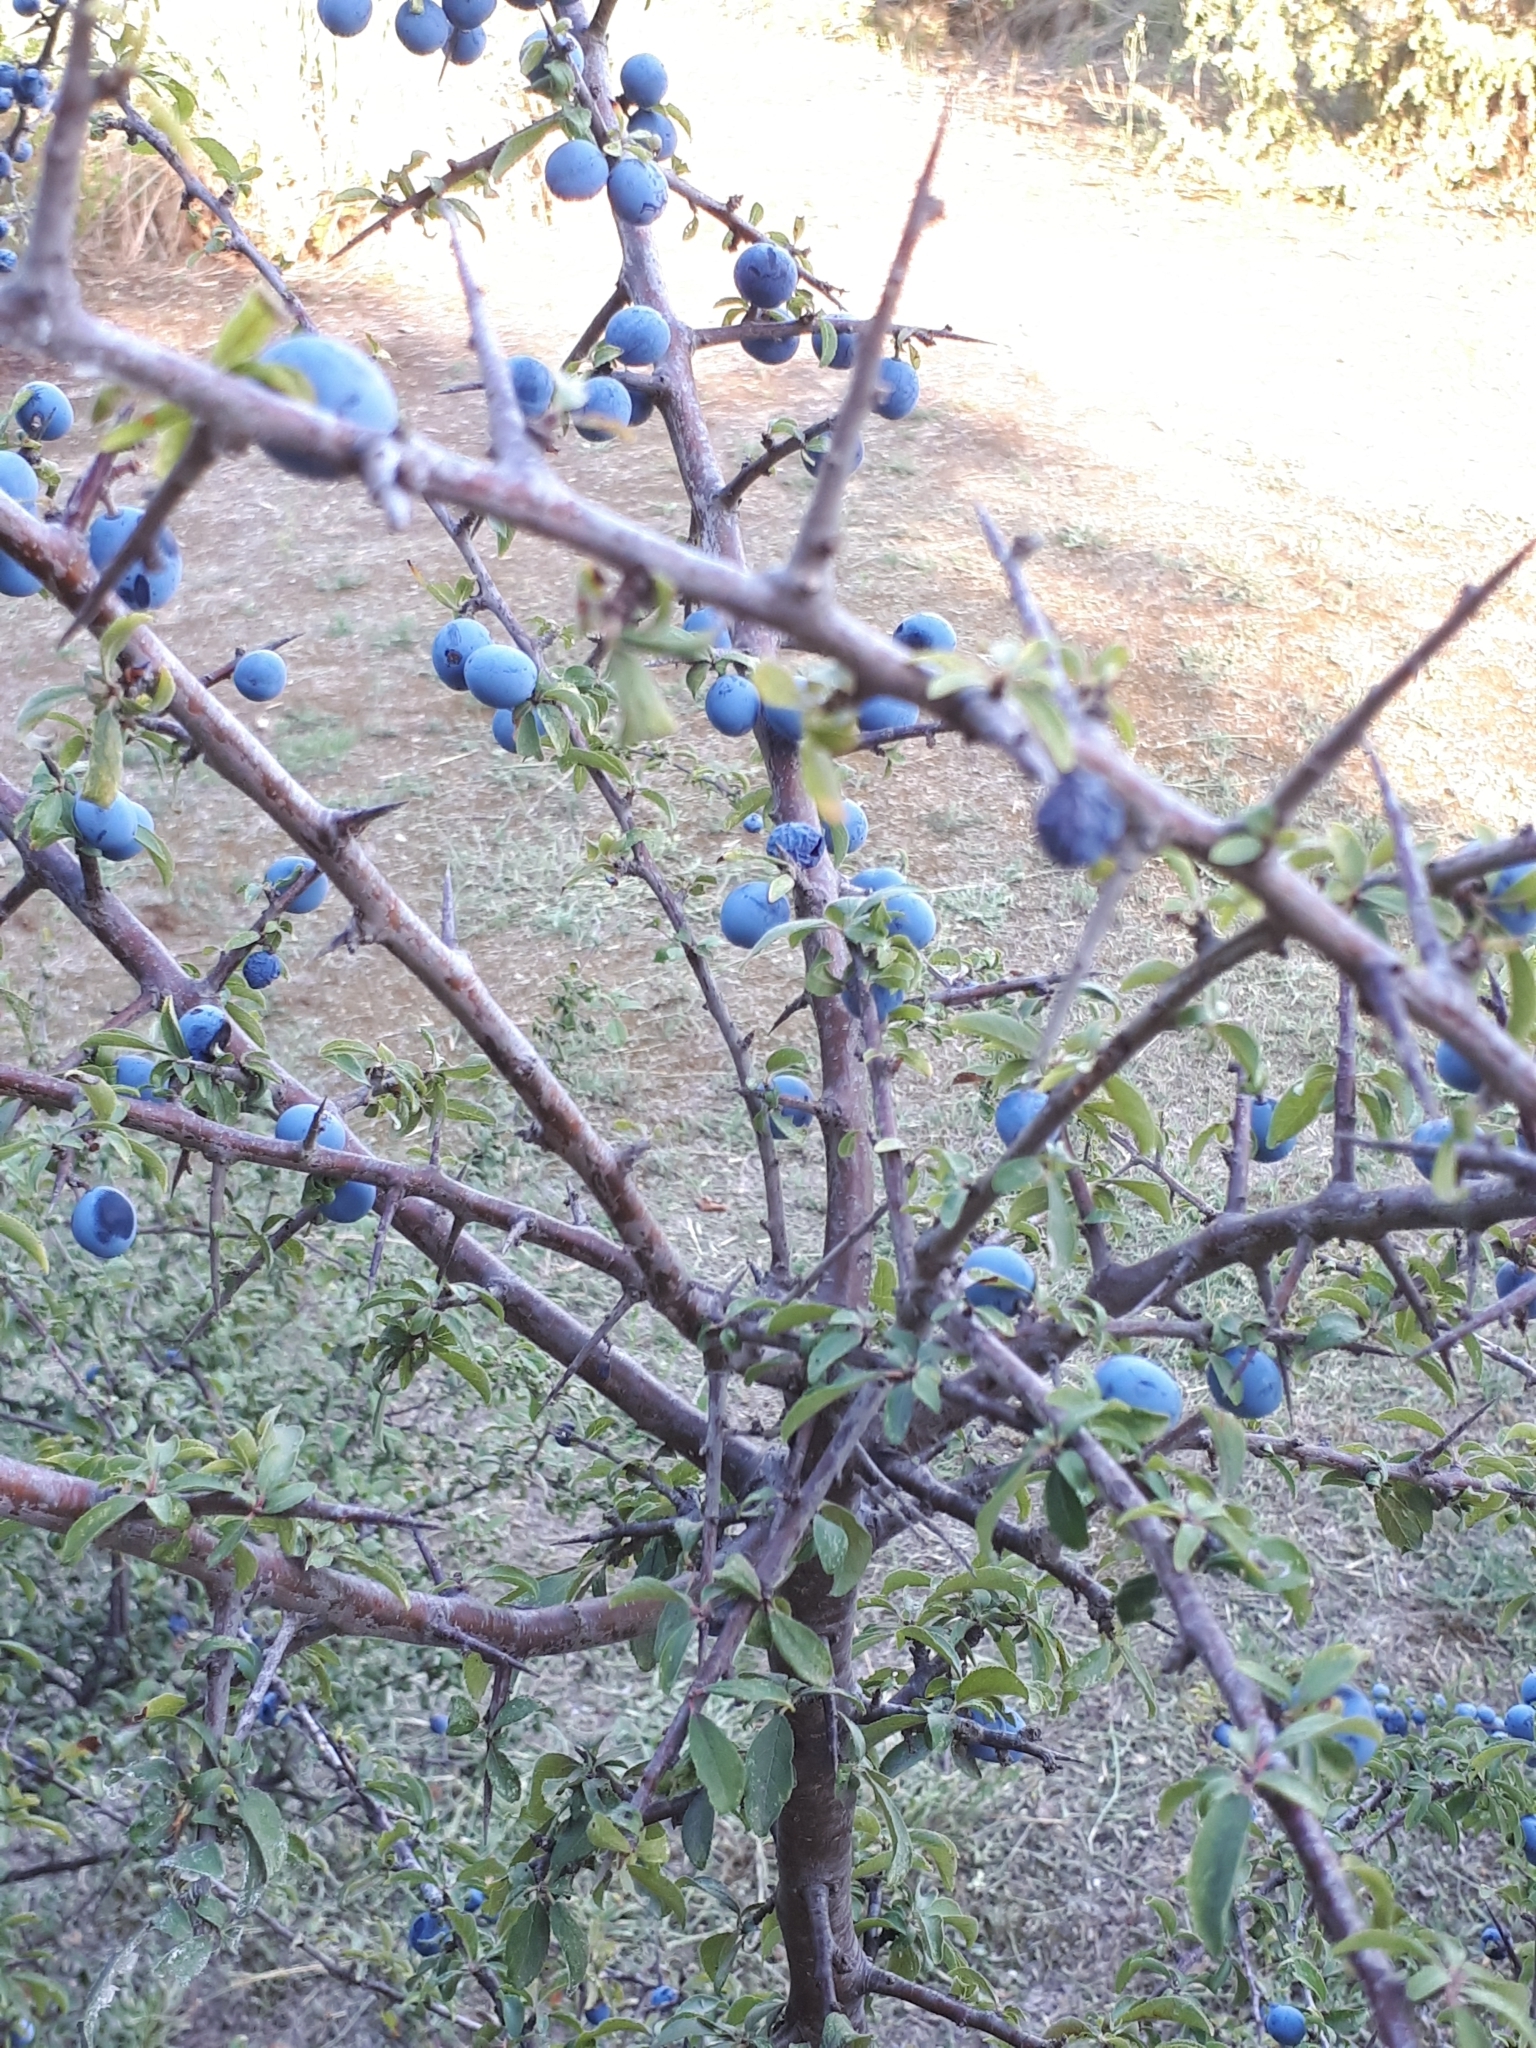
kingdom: Plantae
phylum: Tracheophyta
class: Magnoliopsida
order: Rosales
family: Rosaceae
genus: Prunus
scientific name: Prunus spinosa
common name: Blackthorn
